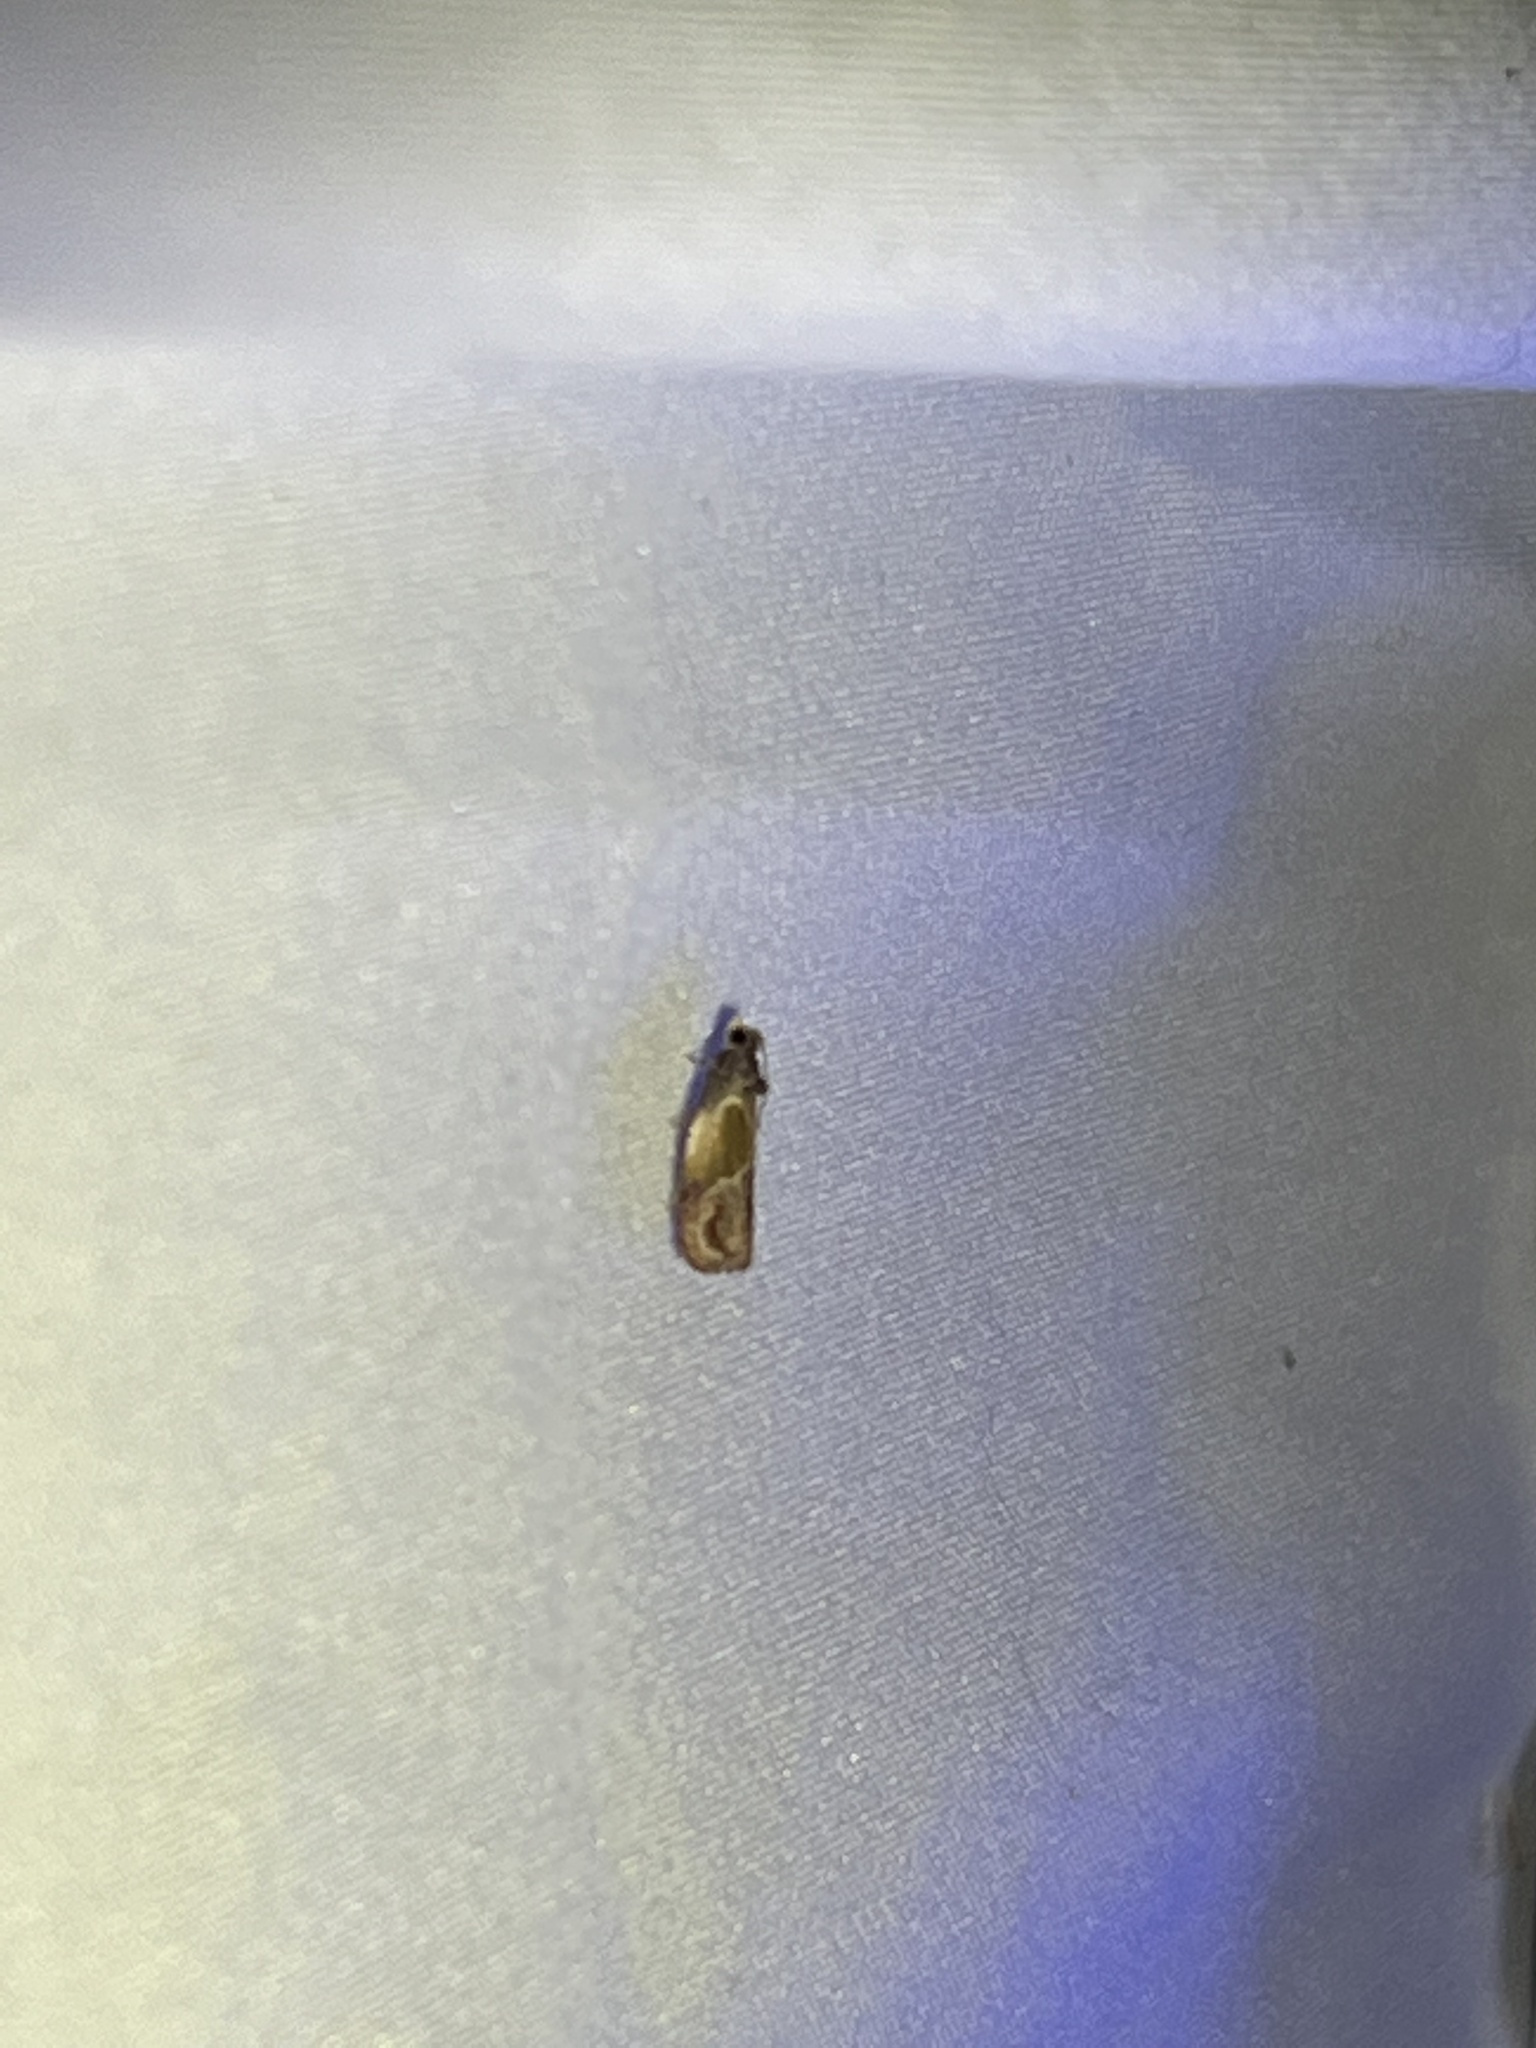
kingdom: Animalia
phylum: Arthropoda
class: Insecta
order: Lepidoptera
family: Tortricidae
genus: Eumarozia
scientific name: Eumarozia malachitana
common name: Sculptured moth
